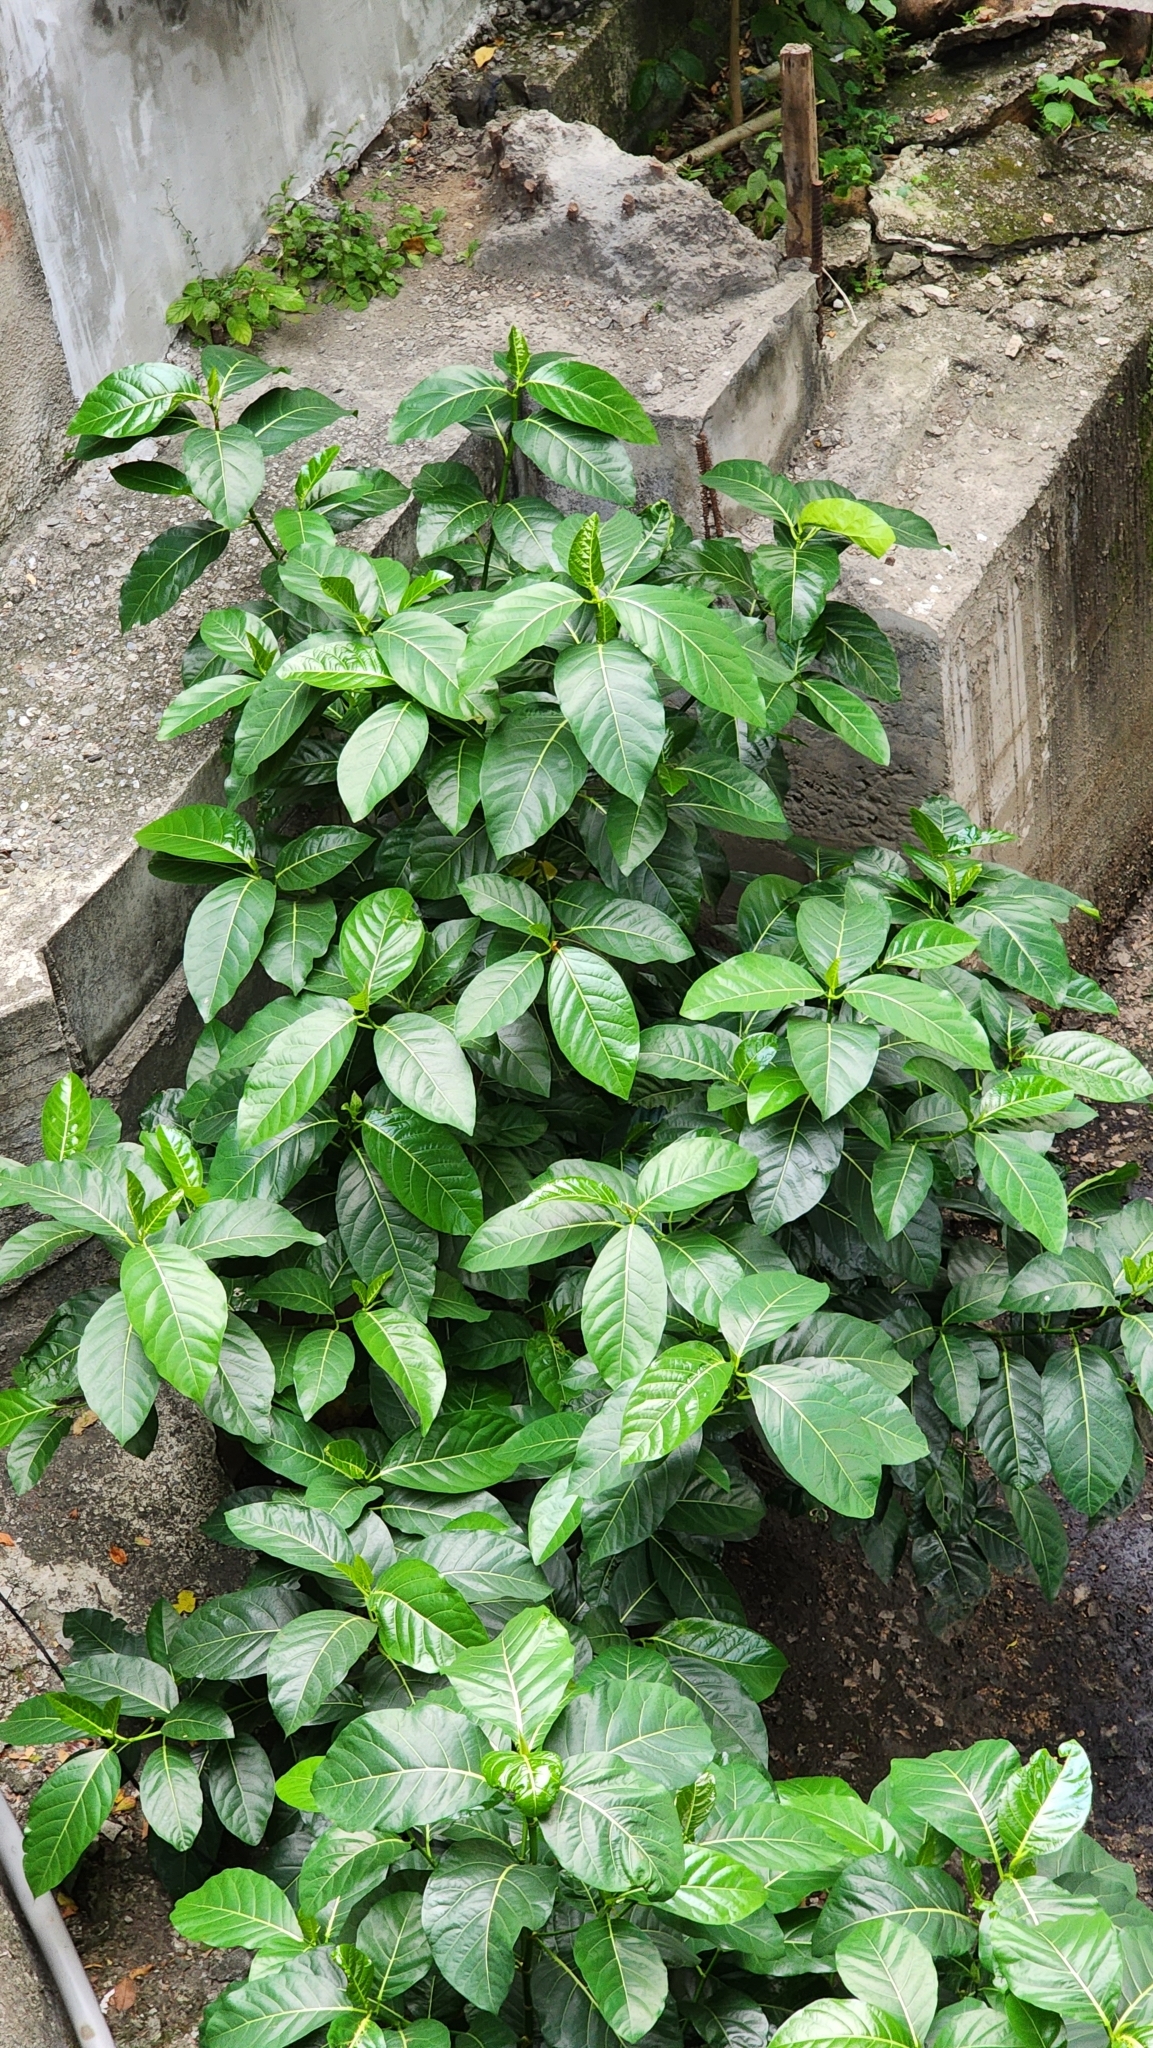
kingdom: Plantae
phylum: Tracheophyta
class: Magnoliopsida
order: Rosales
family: Moraceae
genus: Ficus
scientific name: Ficus septica
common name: Septic fig
